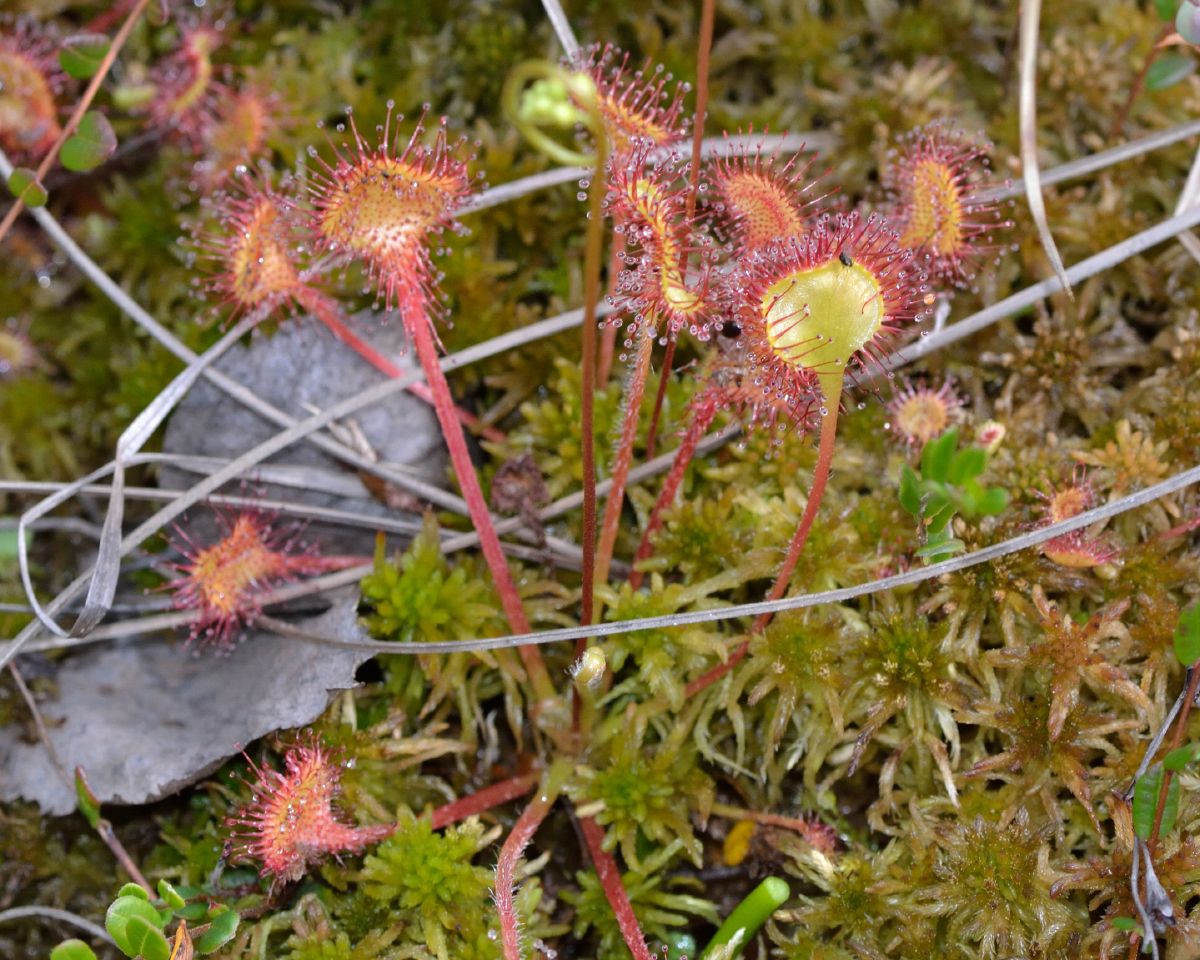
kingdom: Plantae
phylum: Tracheophyta
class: Magnoliopsida
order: Caryophyllales
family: Droseraceae
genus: Drosera
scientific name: Drosera rotundifolia
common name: Round-leaved sundew
